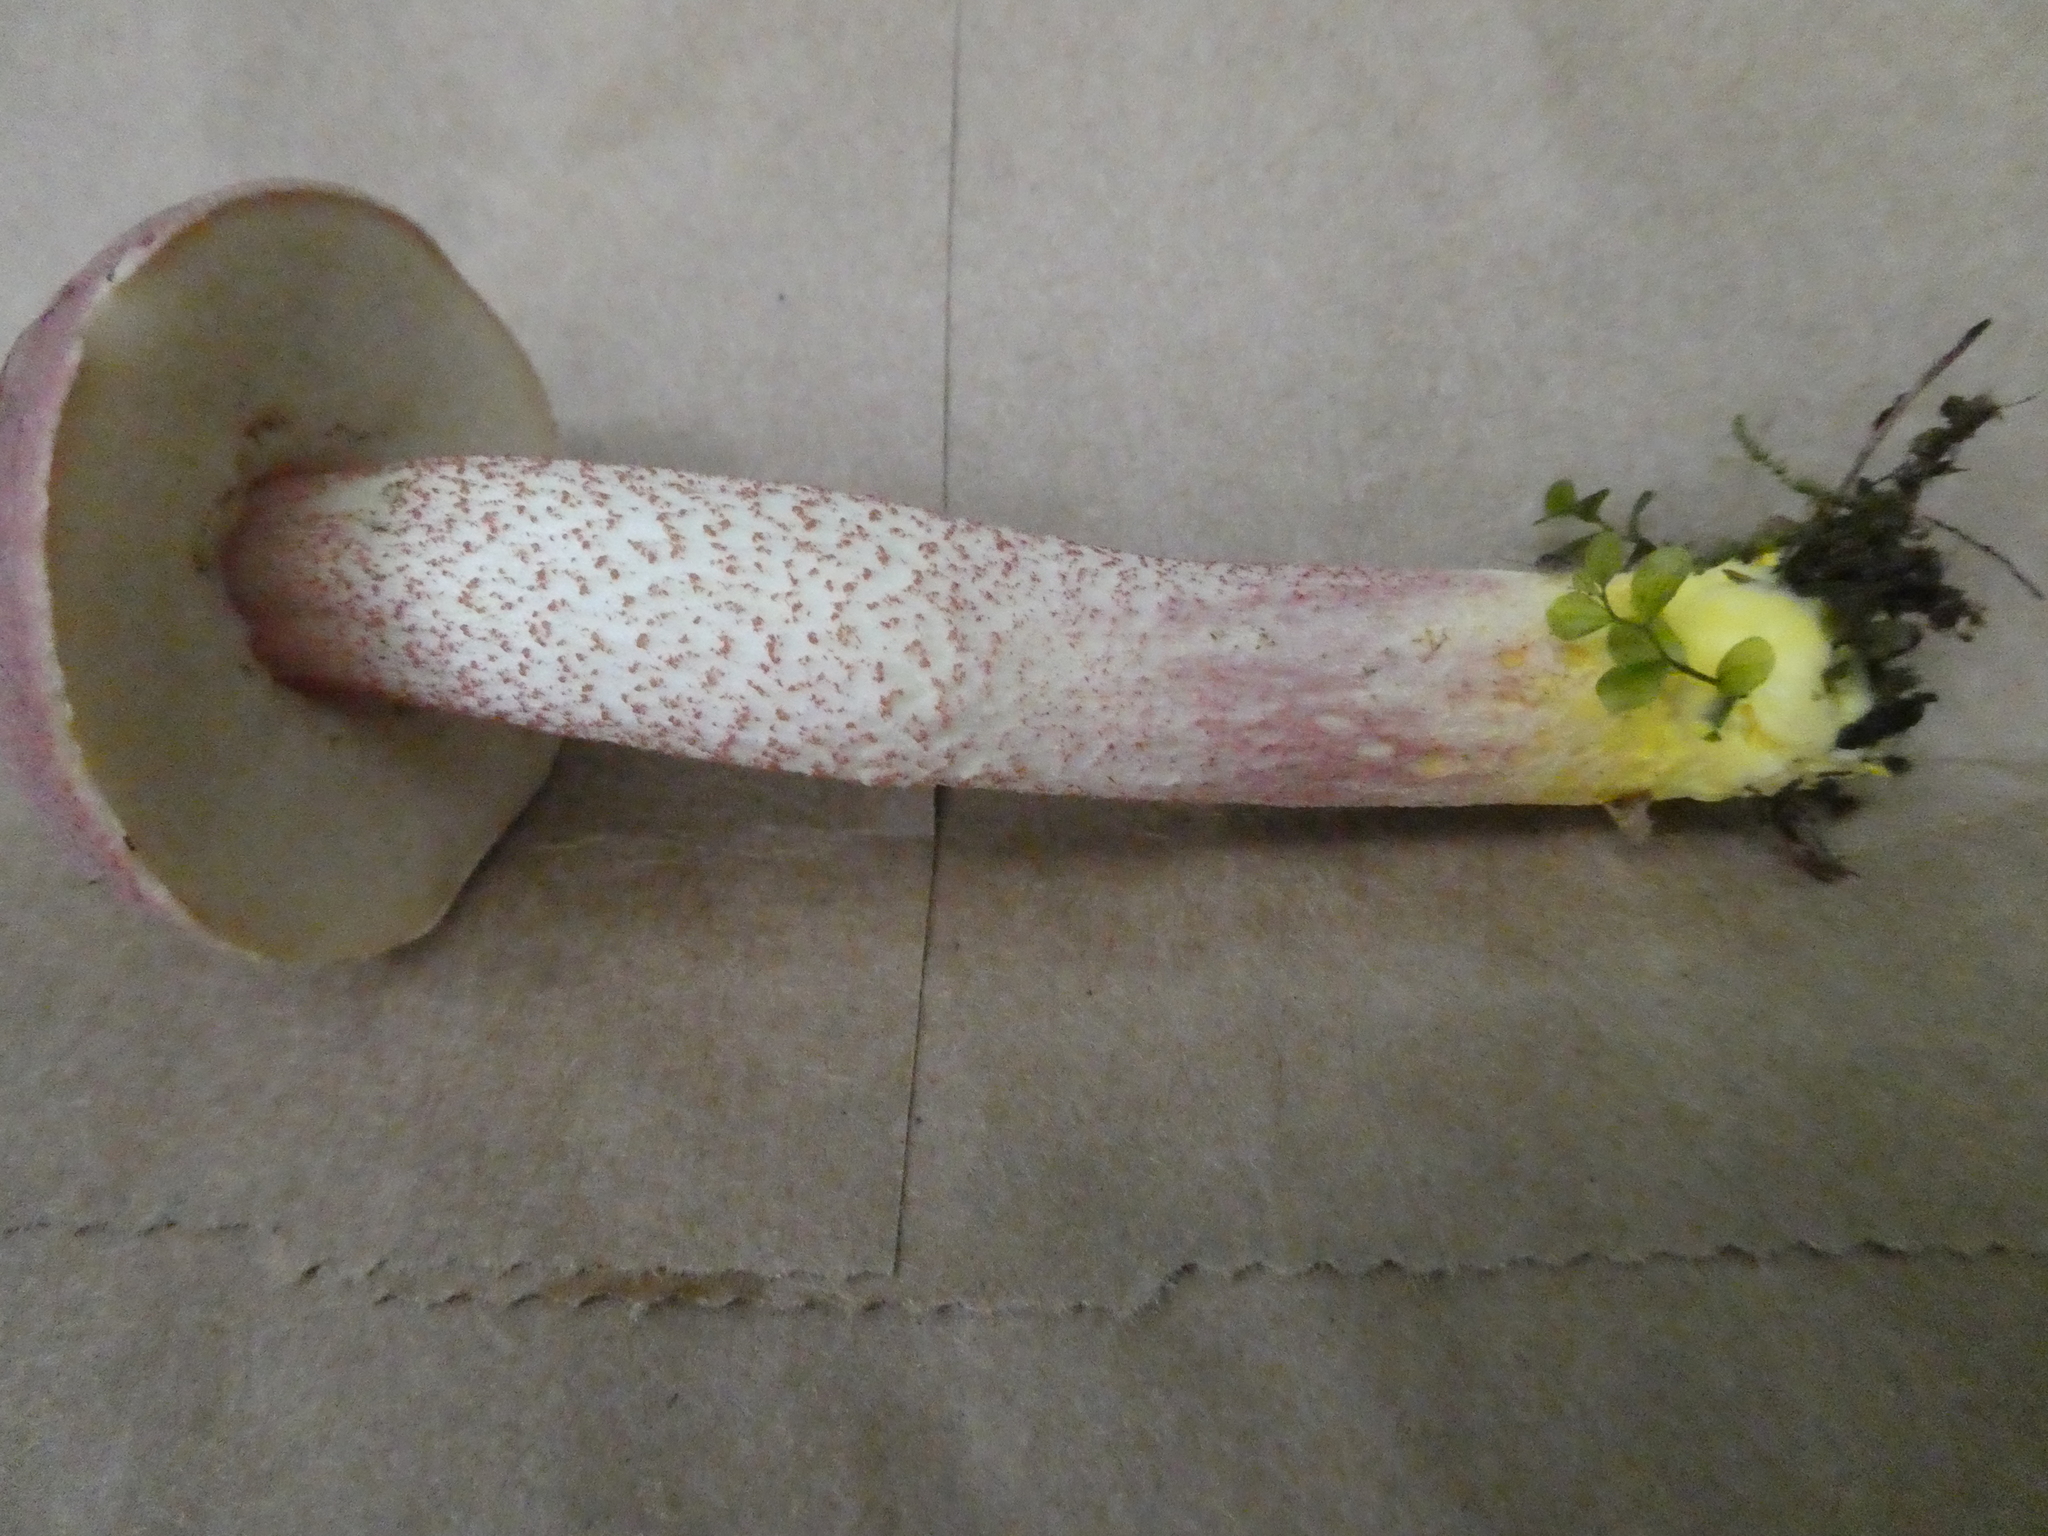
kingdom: Fungi
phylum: Basidiomycota
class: Agaricomycetes
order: Boletales
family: Boletaceae
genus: Harrya
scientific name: Harrya chromipes
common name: Chrome-footed bolete
